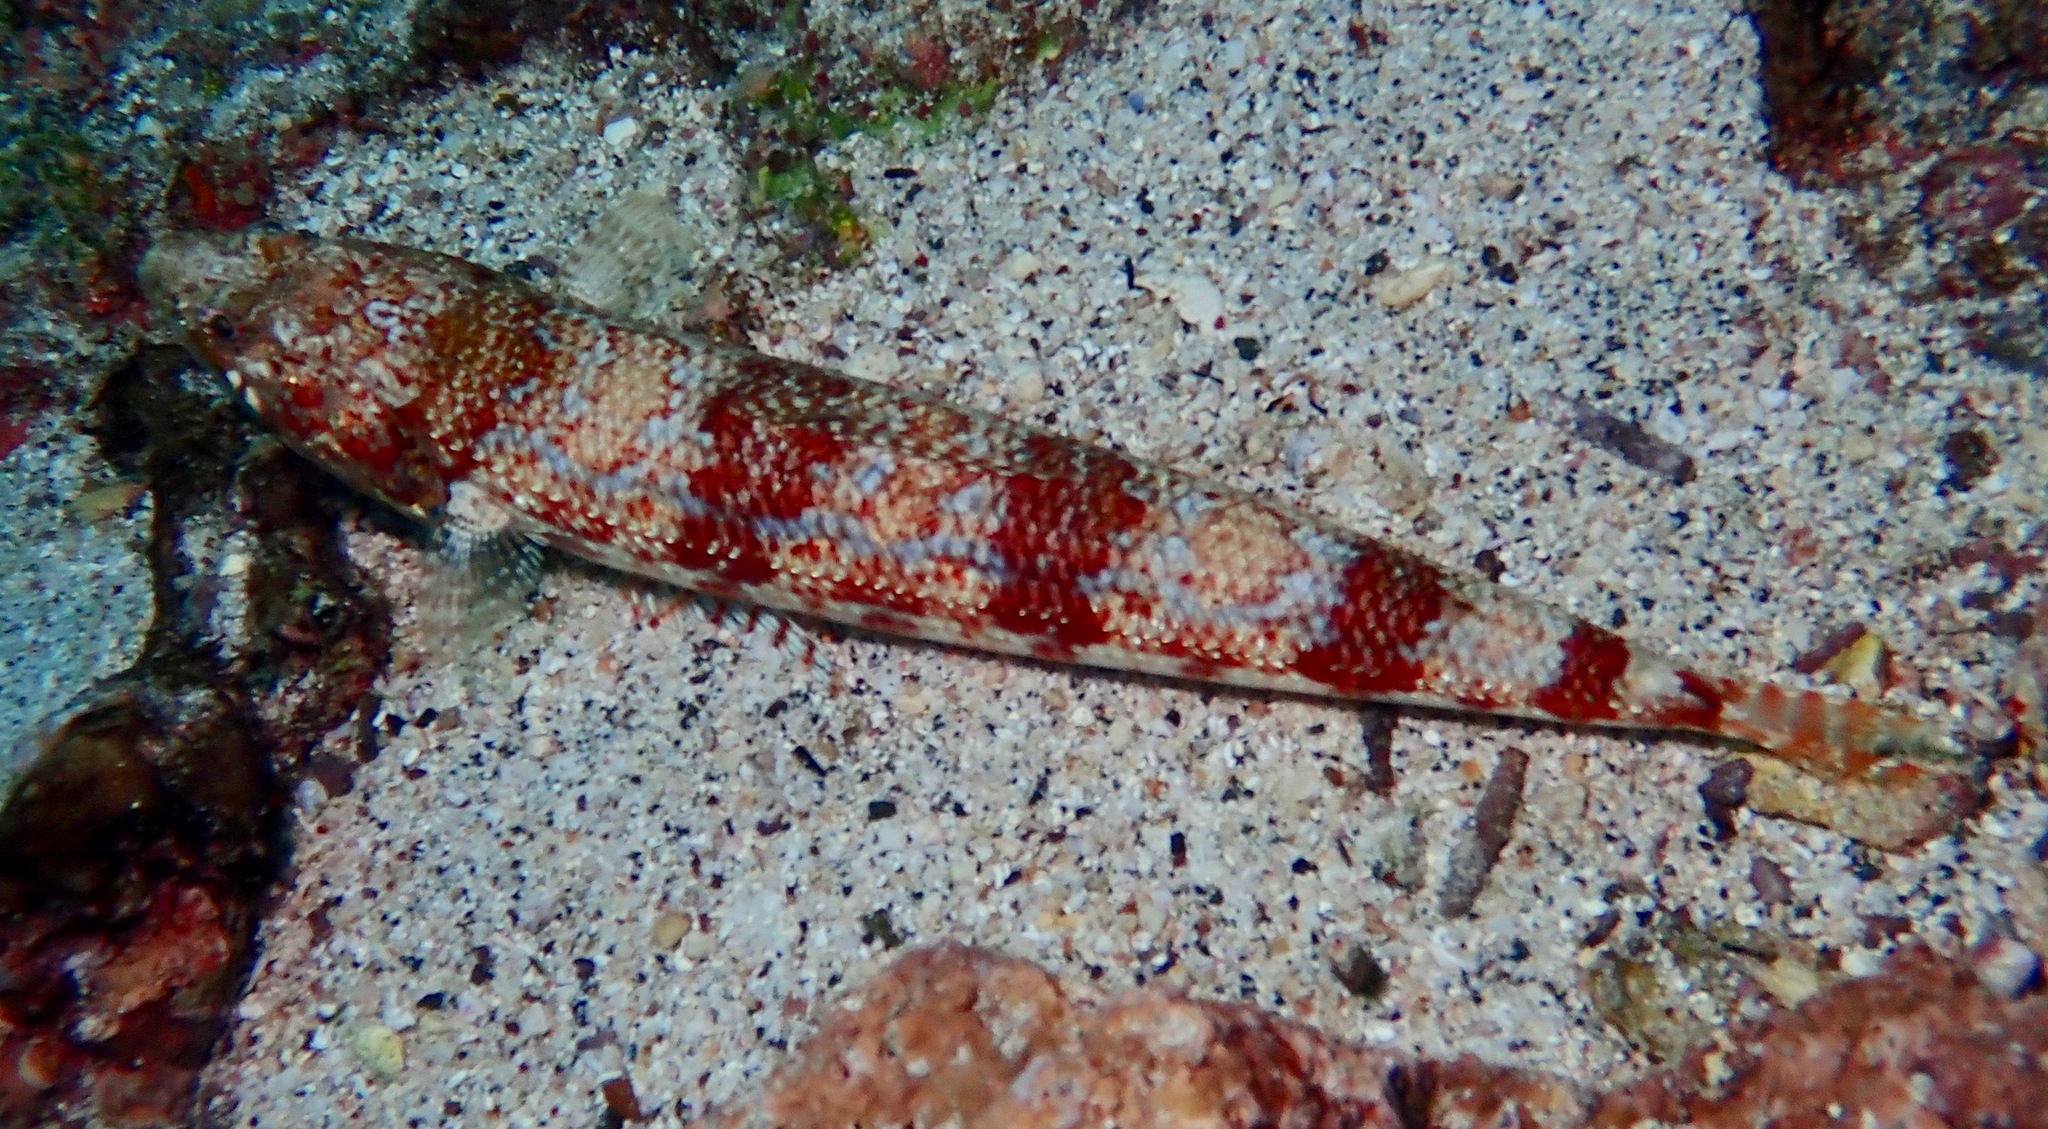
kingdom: Animalia
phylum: Chordata
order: Aulopiformes
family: Synodontidae
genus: Synodus
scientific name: Synodus lacertinus
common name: Calico lizardfish
